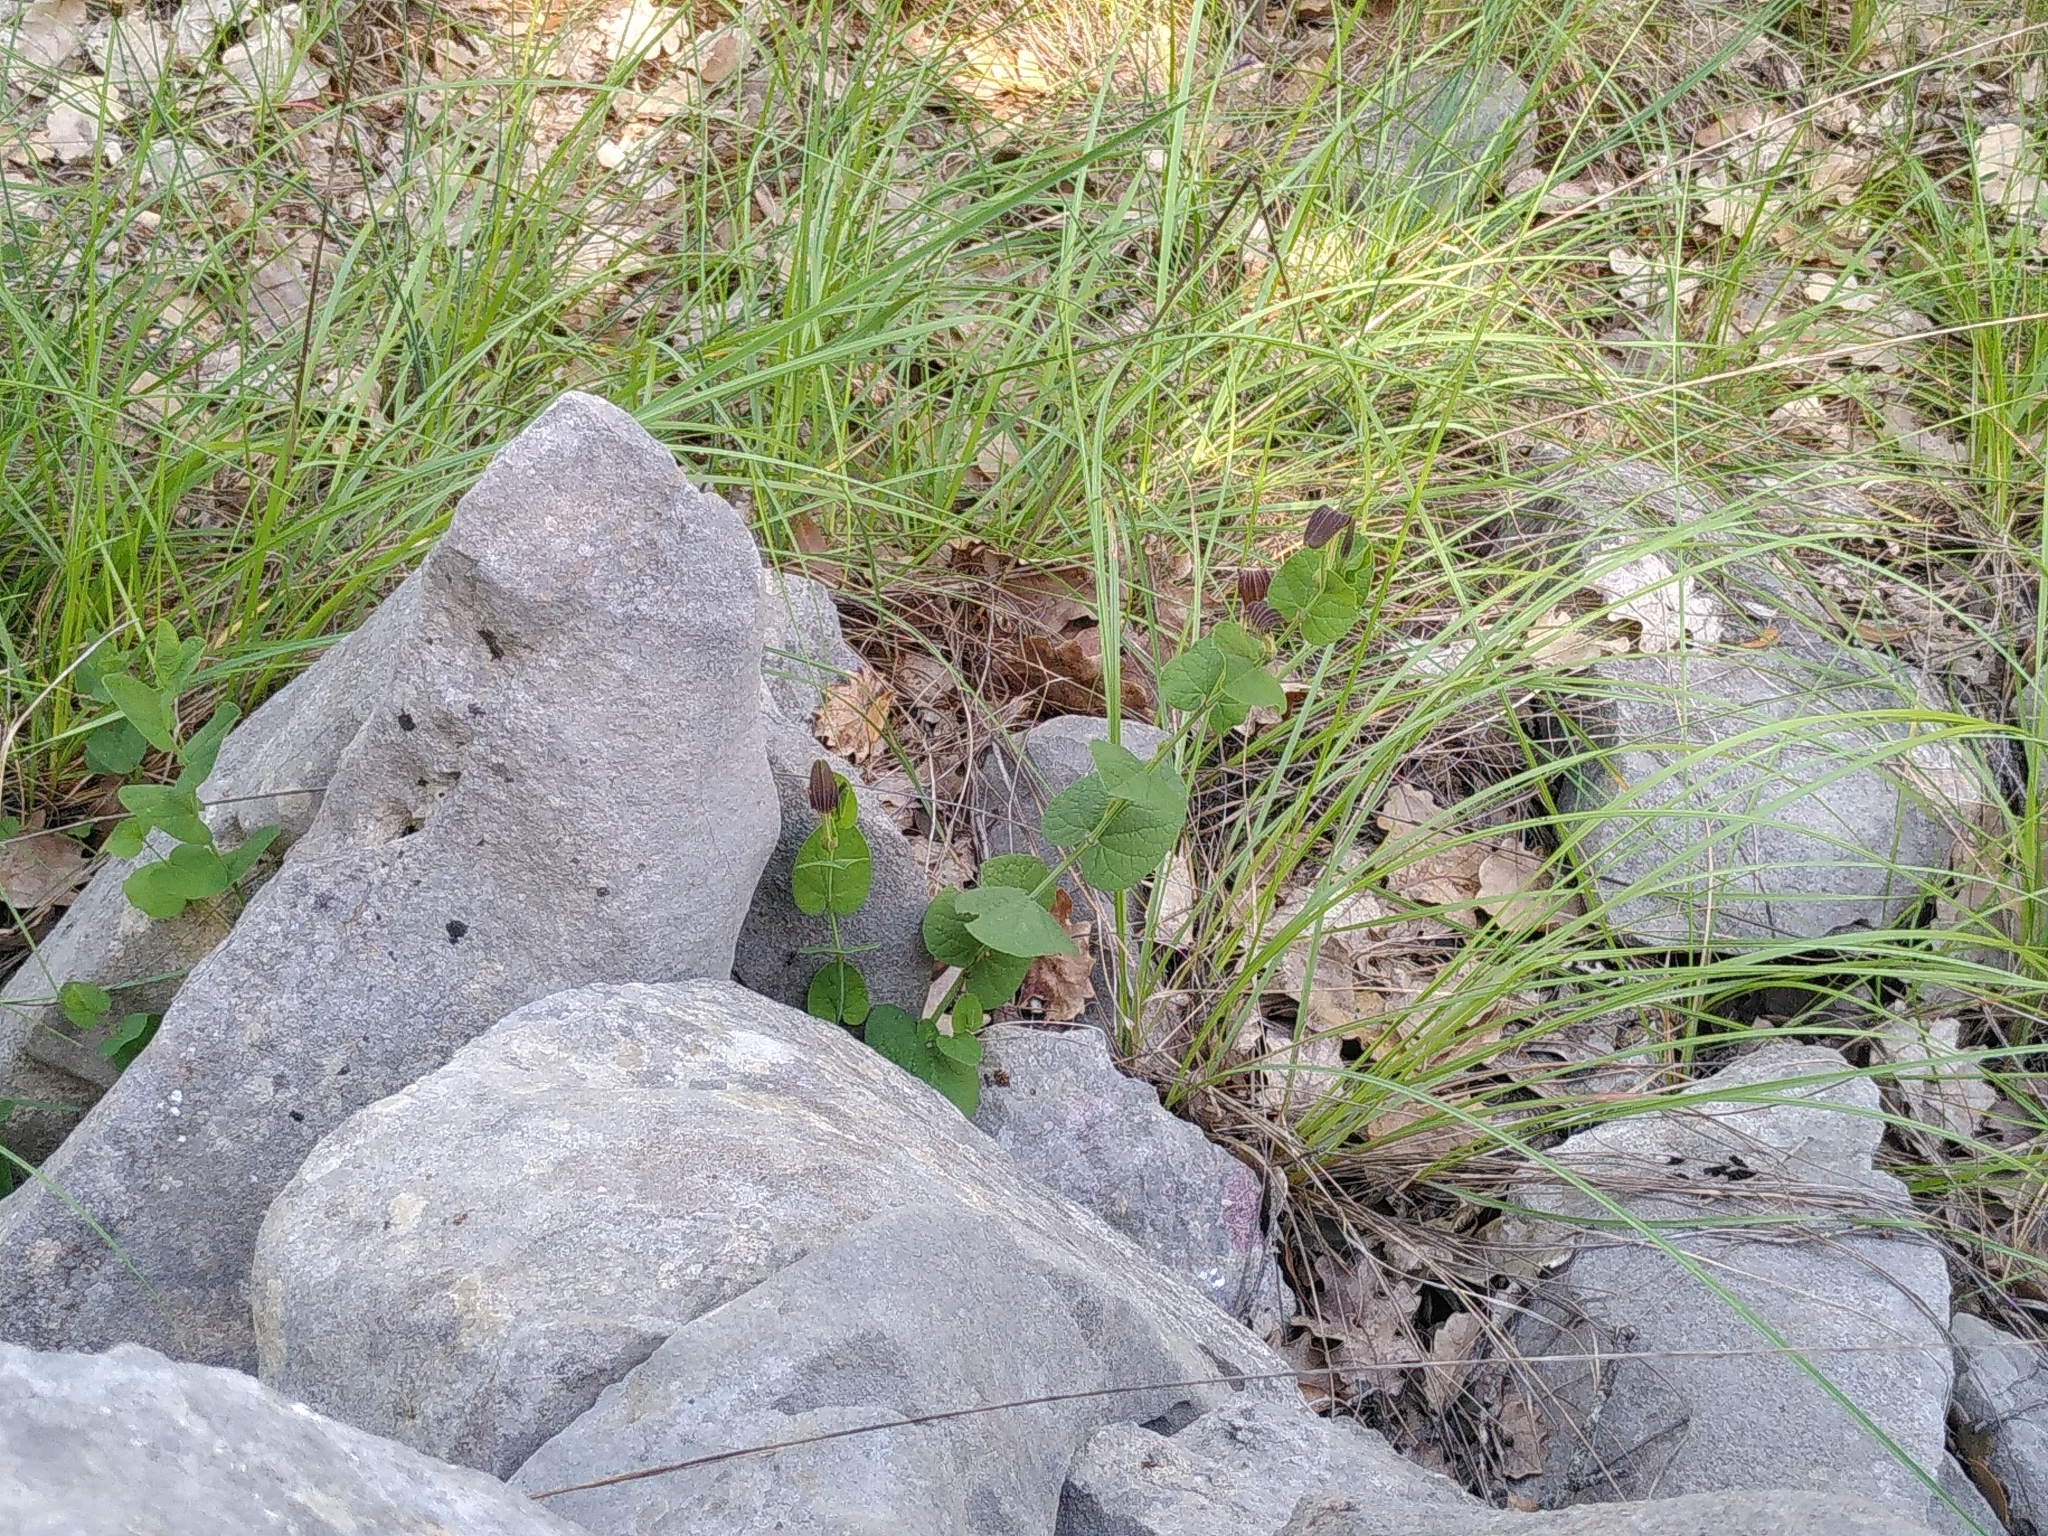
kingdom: Plantae
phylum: Tracheophyta
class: Magnoliopsida
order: Piperales
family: Aristolochiaceae
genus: Aristolochia
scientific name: Aristolochia rotunda
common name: Smearwort
